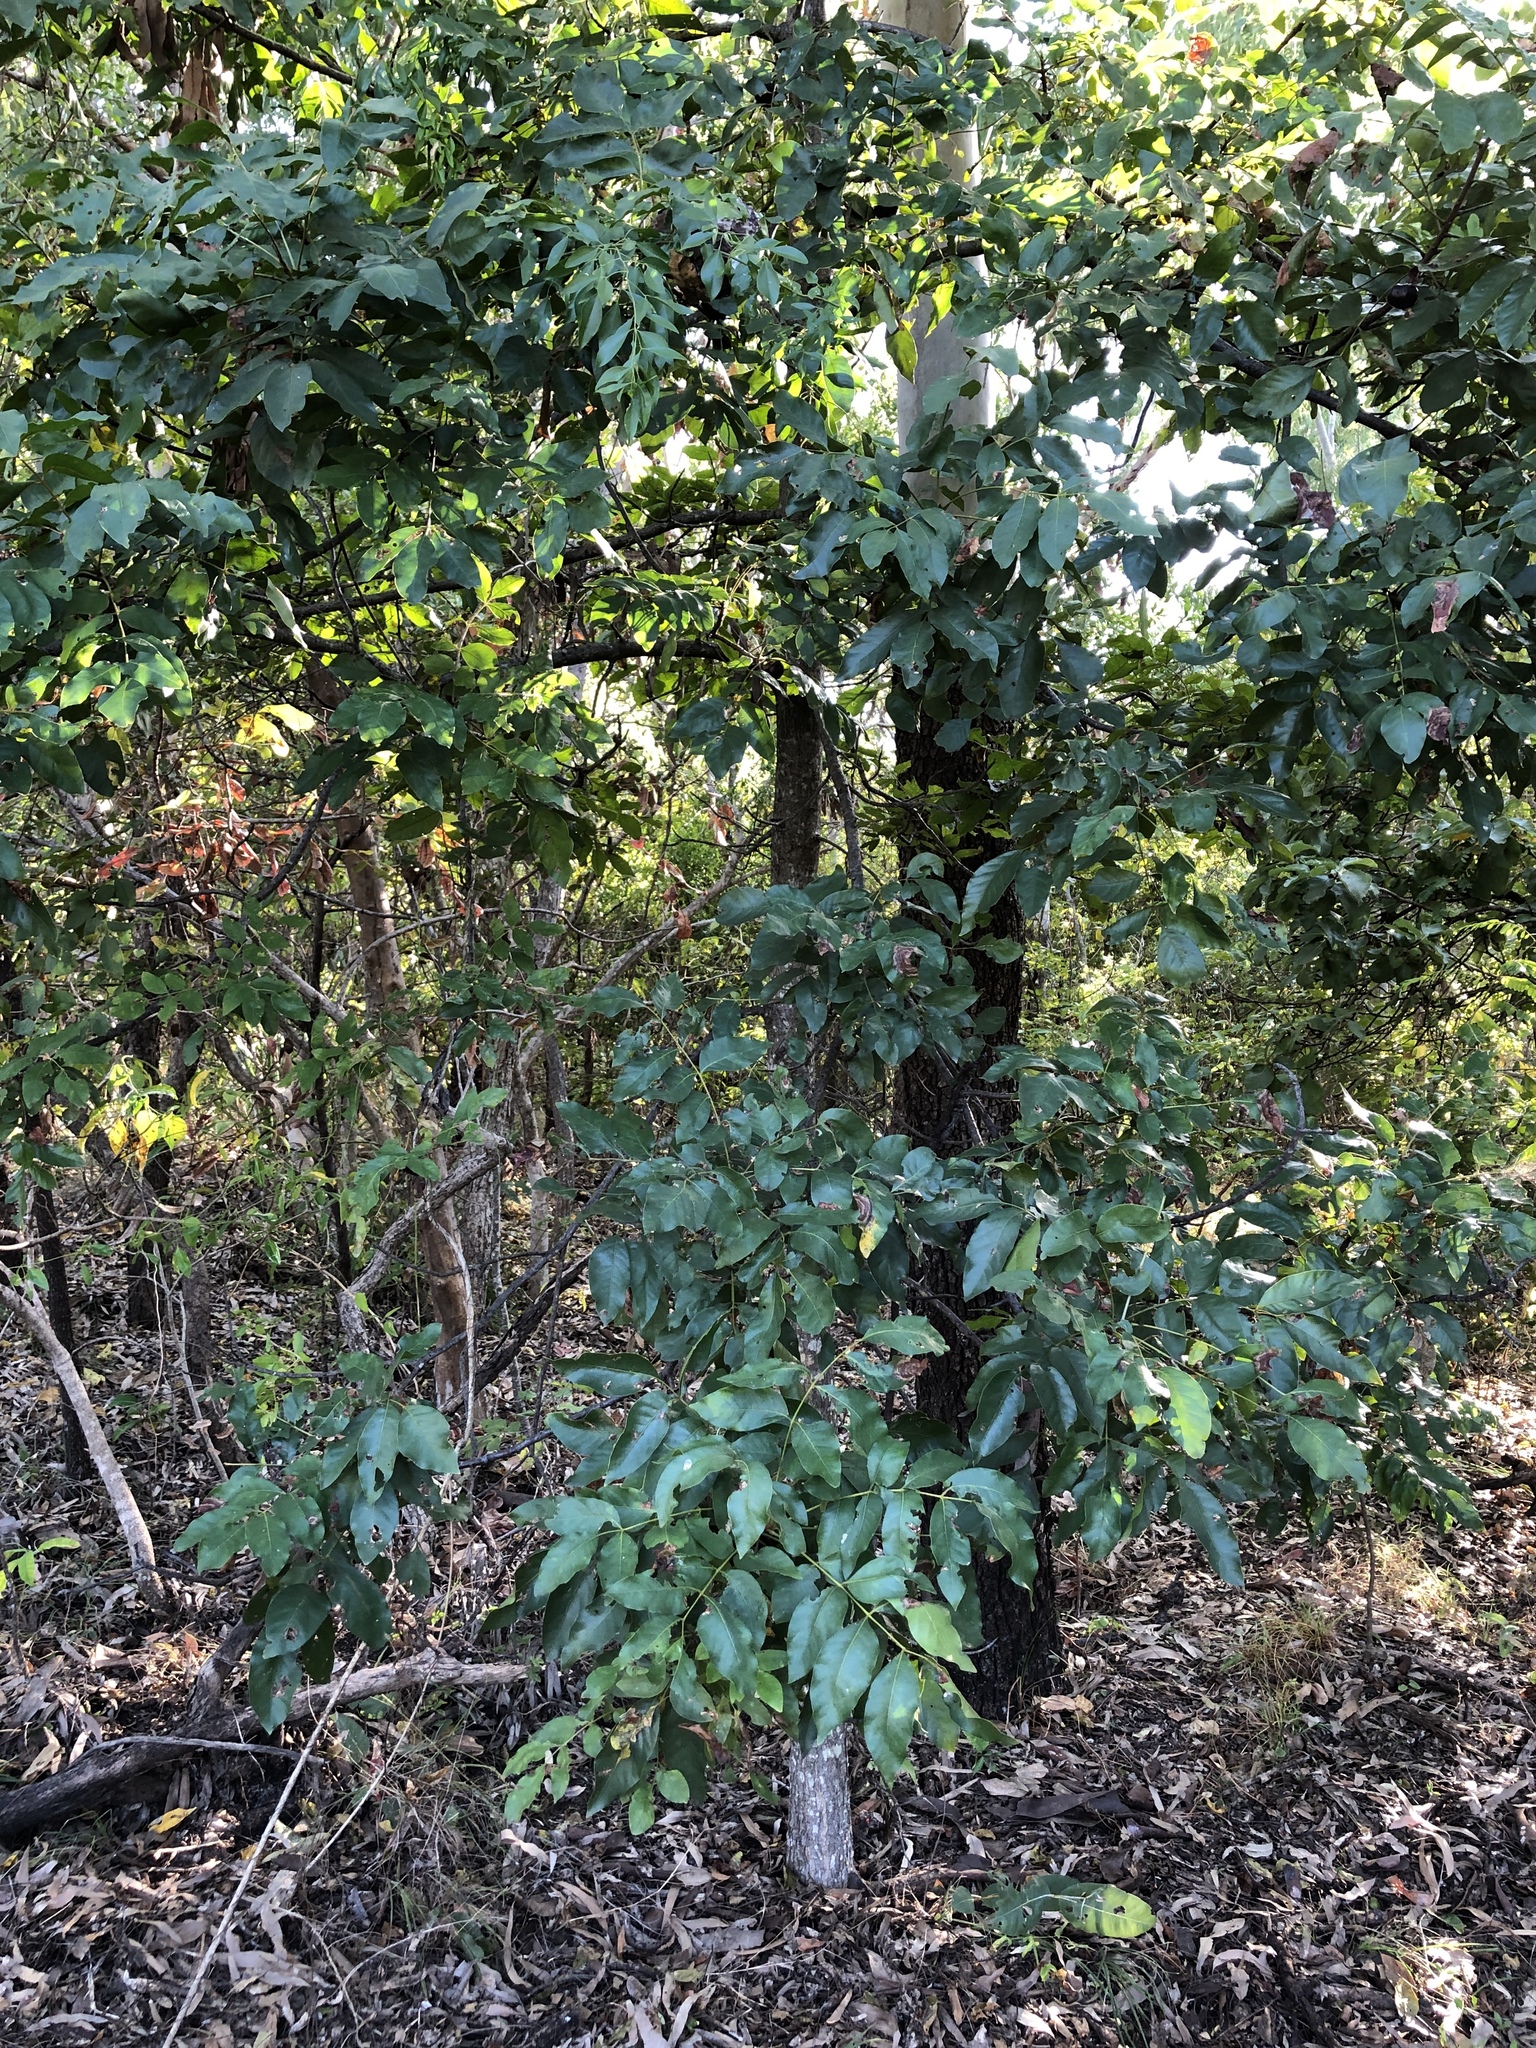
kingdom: Plantae
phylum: Tracheophyta
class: Magnoliopsida
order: Sapindales
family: Anacardiaceae
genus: Pleiogynium
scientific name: Pleiogynium timoriense
